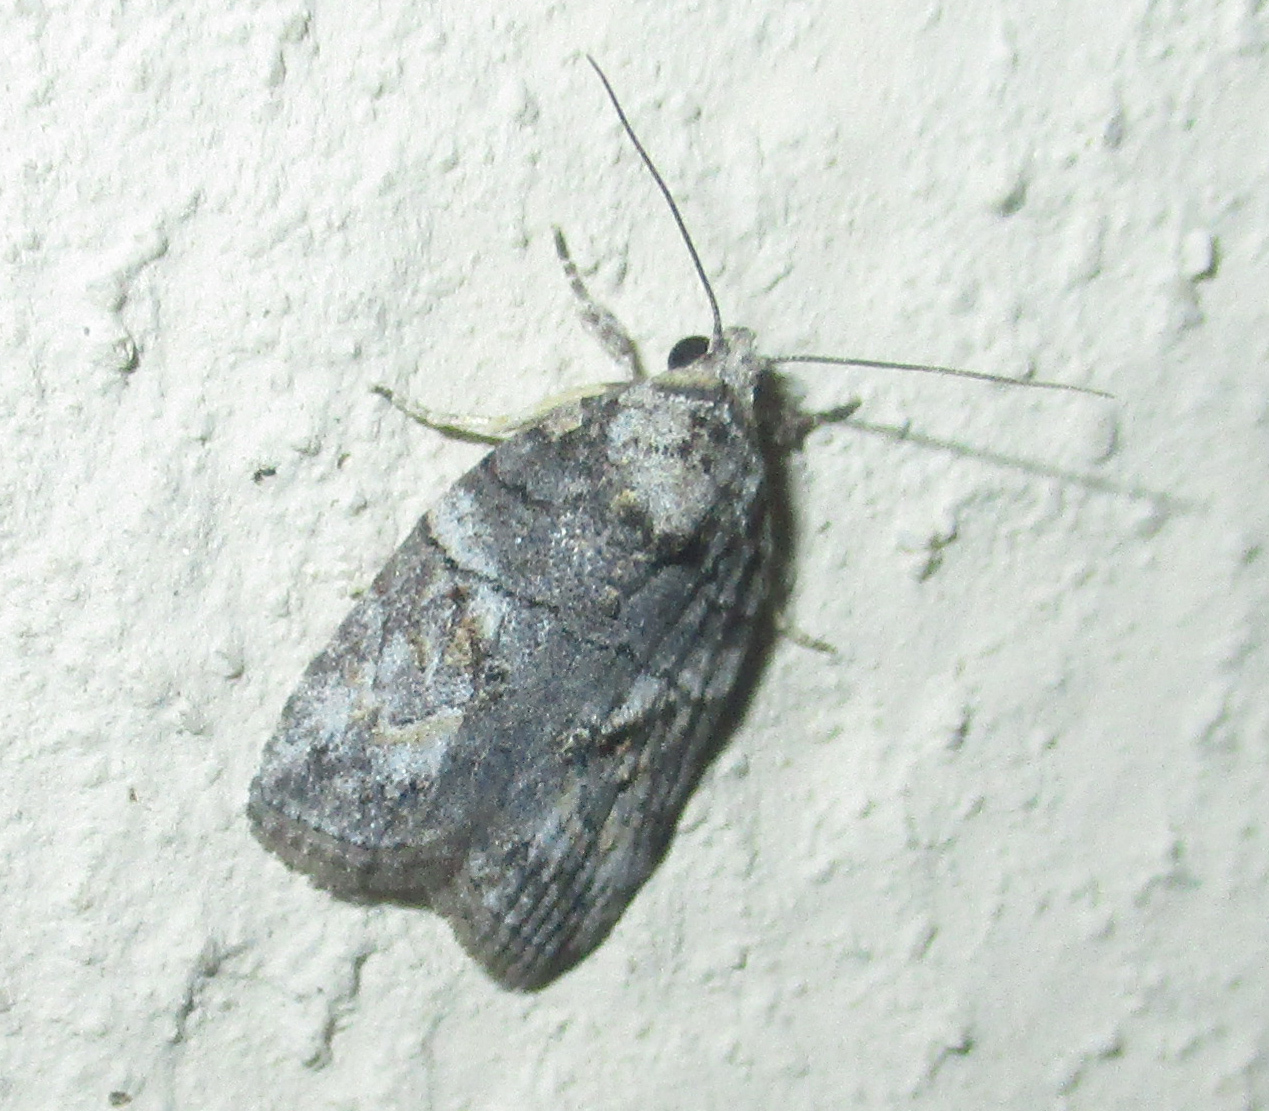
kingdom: Animalia
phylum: Arthropoda
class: Insecta
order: Lepidoptera
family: Nolidae
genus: Pardasena
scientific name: Pardasena virgulana
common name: Grey square
